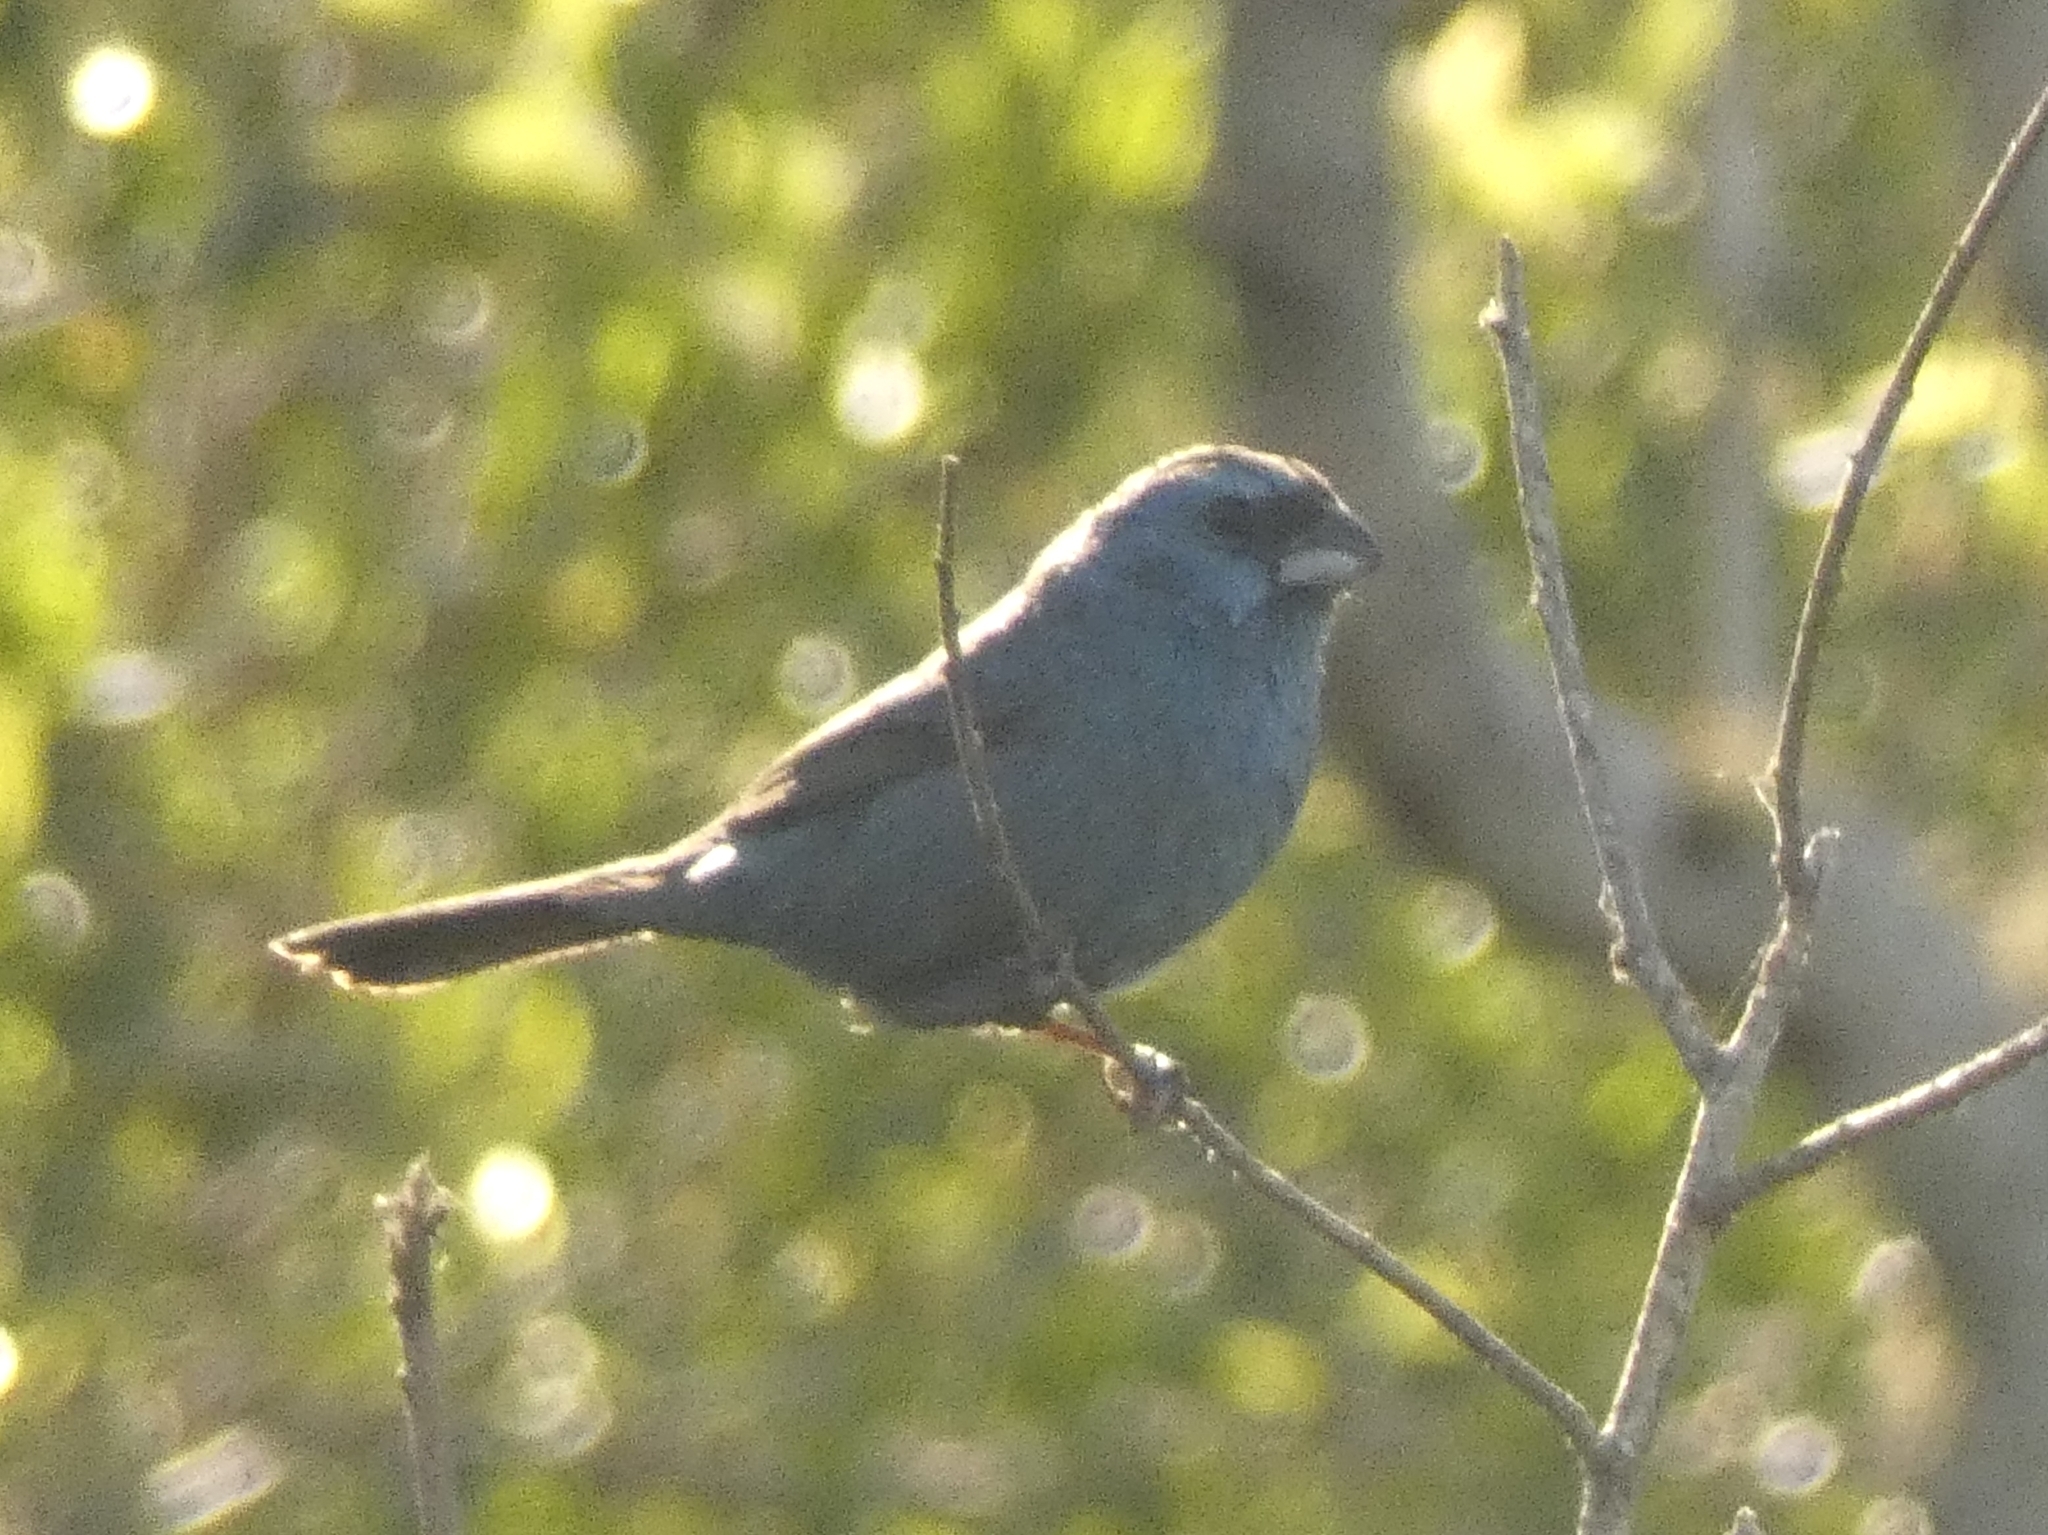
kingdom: Animalia
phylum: Chordata
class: Aves
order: Passeriformes
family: Cardinalidae
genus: Cyanoloxia
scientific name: Cyanoloxia glaucocaerulea
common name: Glaucous-blue grosbeak
